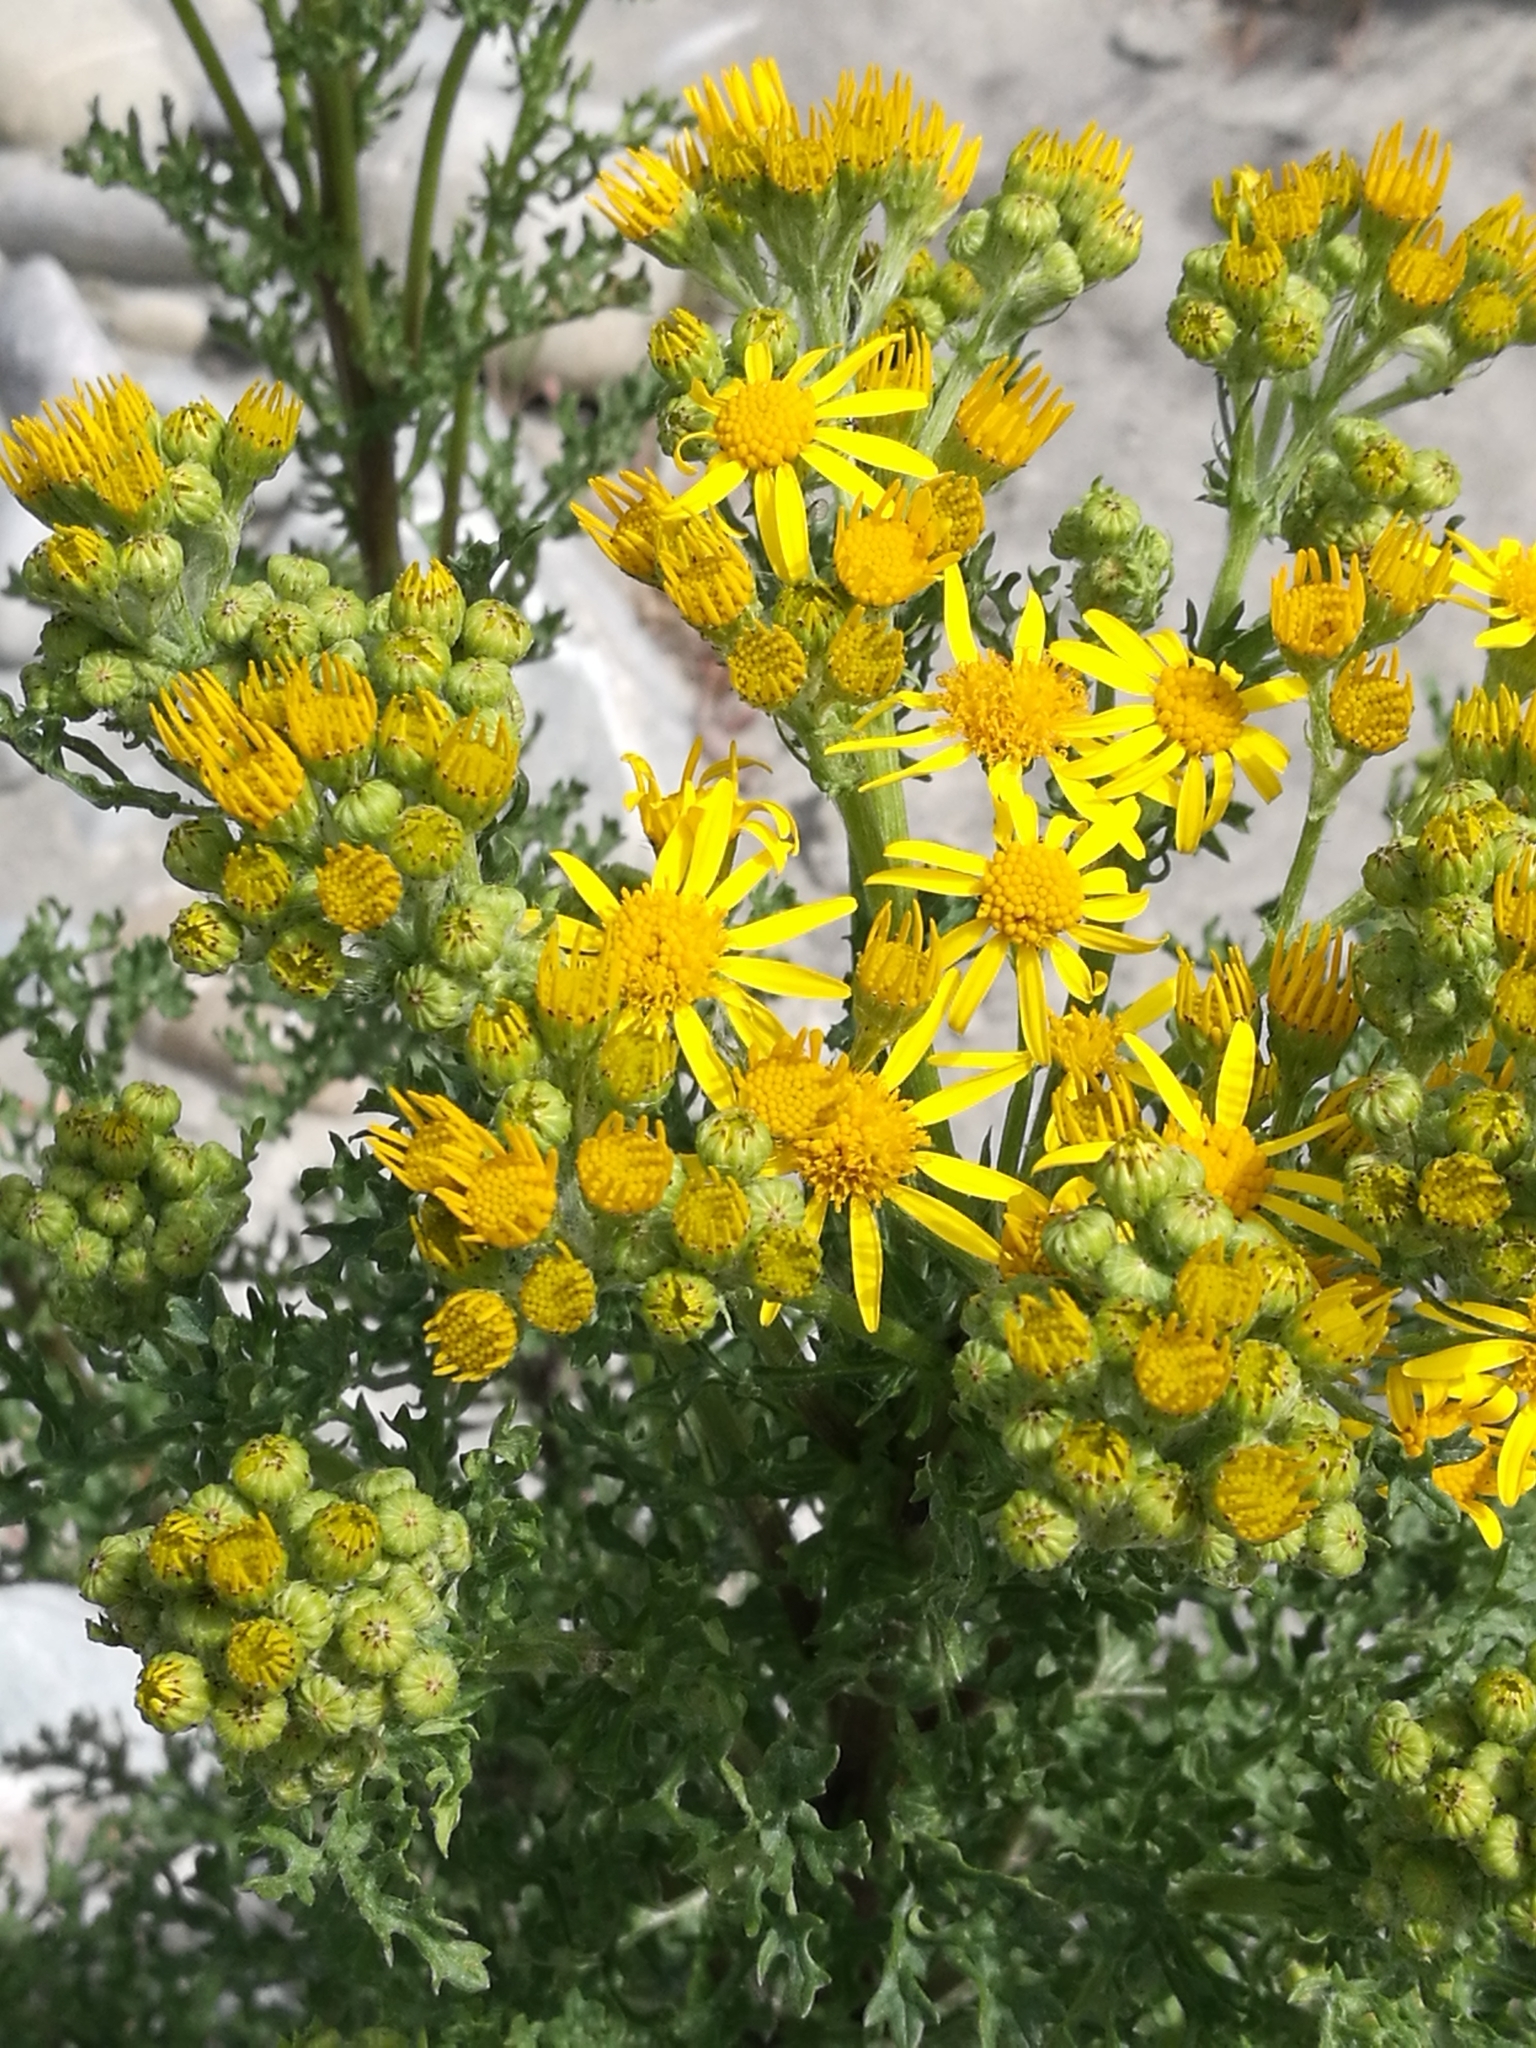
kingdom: Plantae
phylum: Tracheophyta
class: Magnoliopsida
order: Asterales
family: Asteraceae
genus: Jacobaea
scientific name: Jacobaea vulgaris
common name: Stinking willie
